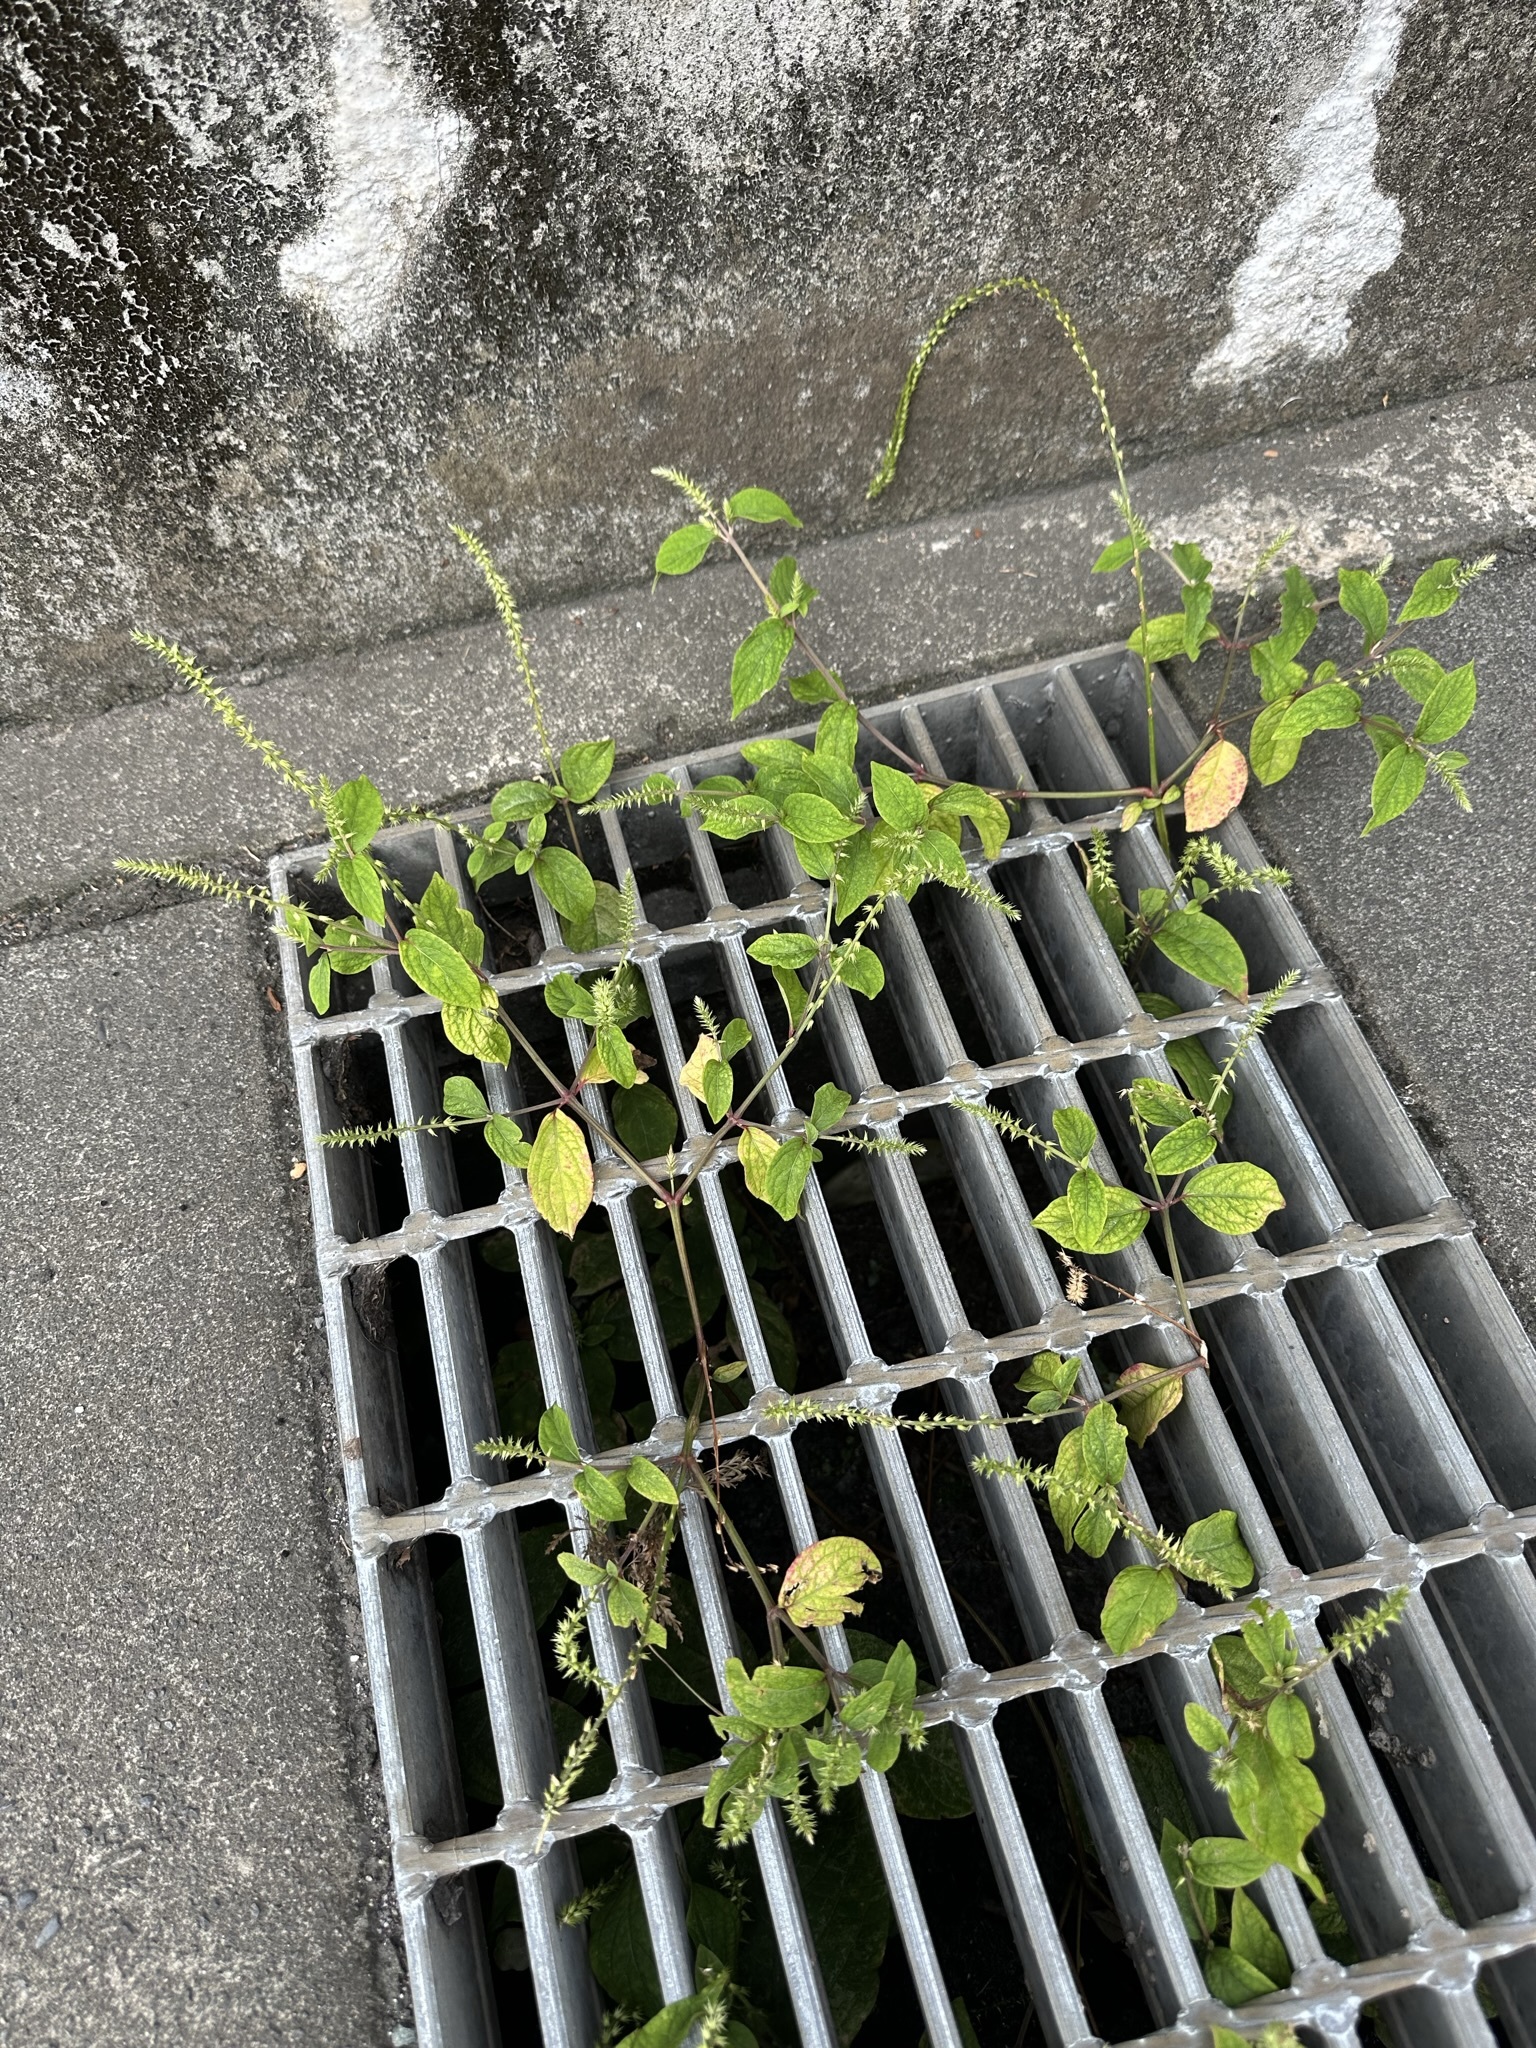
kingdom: Plantae
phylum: Tracheophyta
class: Magnoliopsida
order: Caryophyllales
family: Amaranthaceae
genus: Achyranthes
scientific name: Achyranthes bidentata
